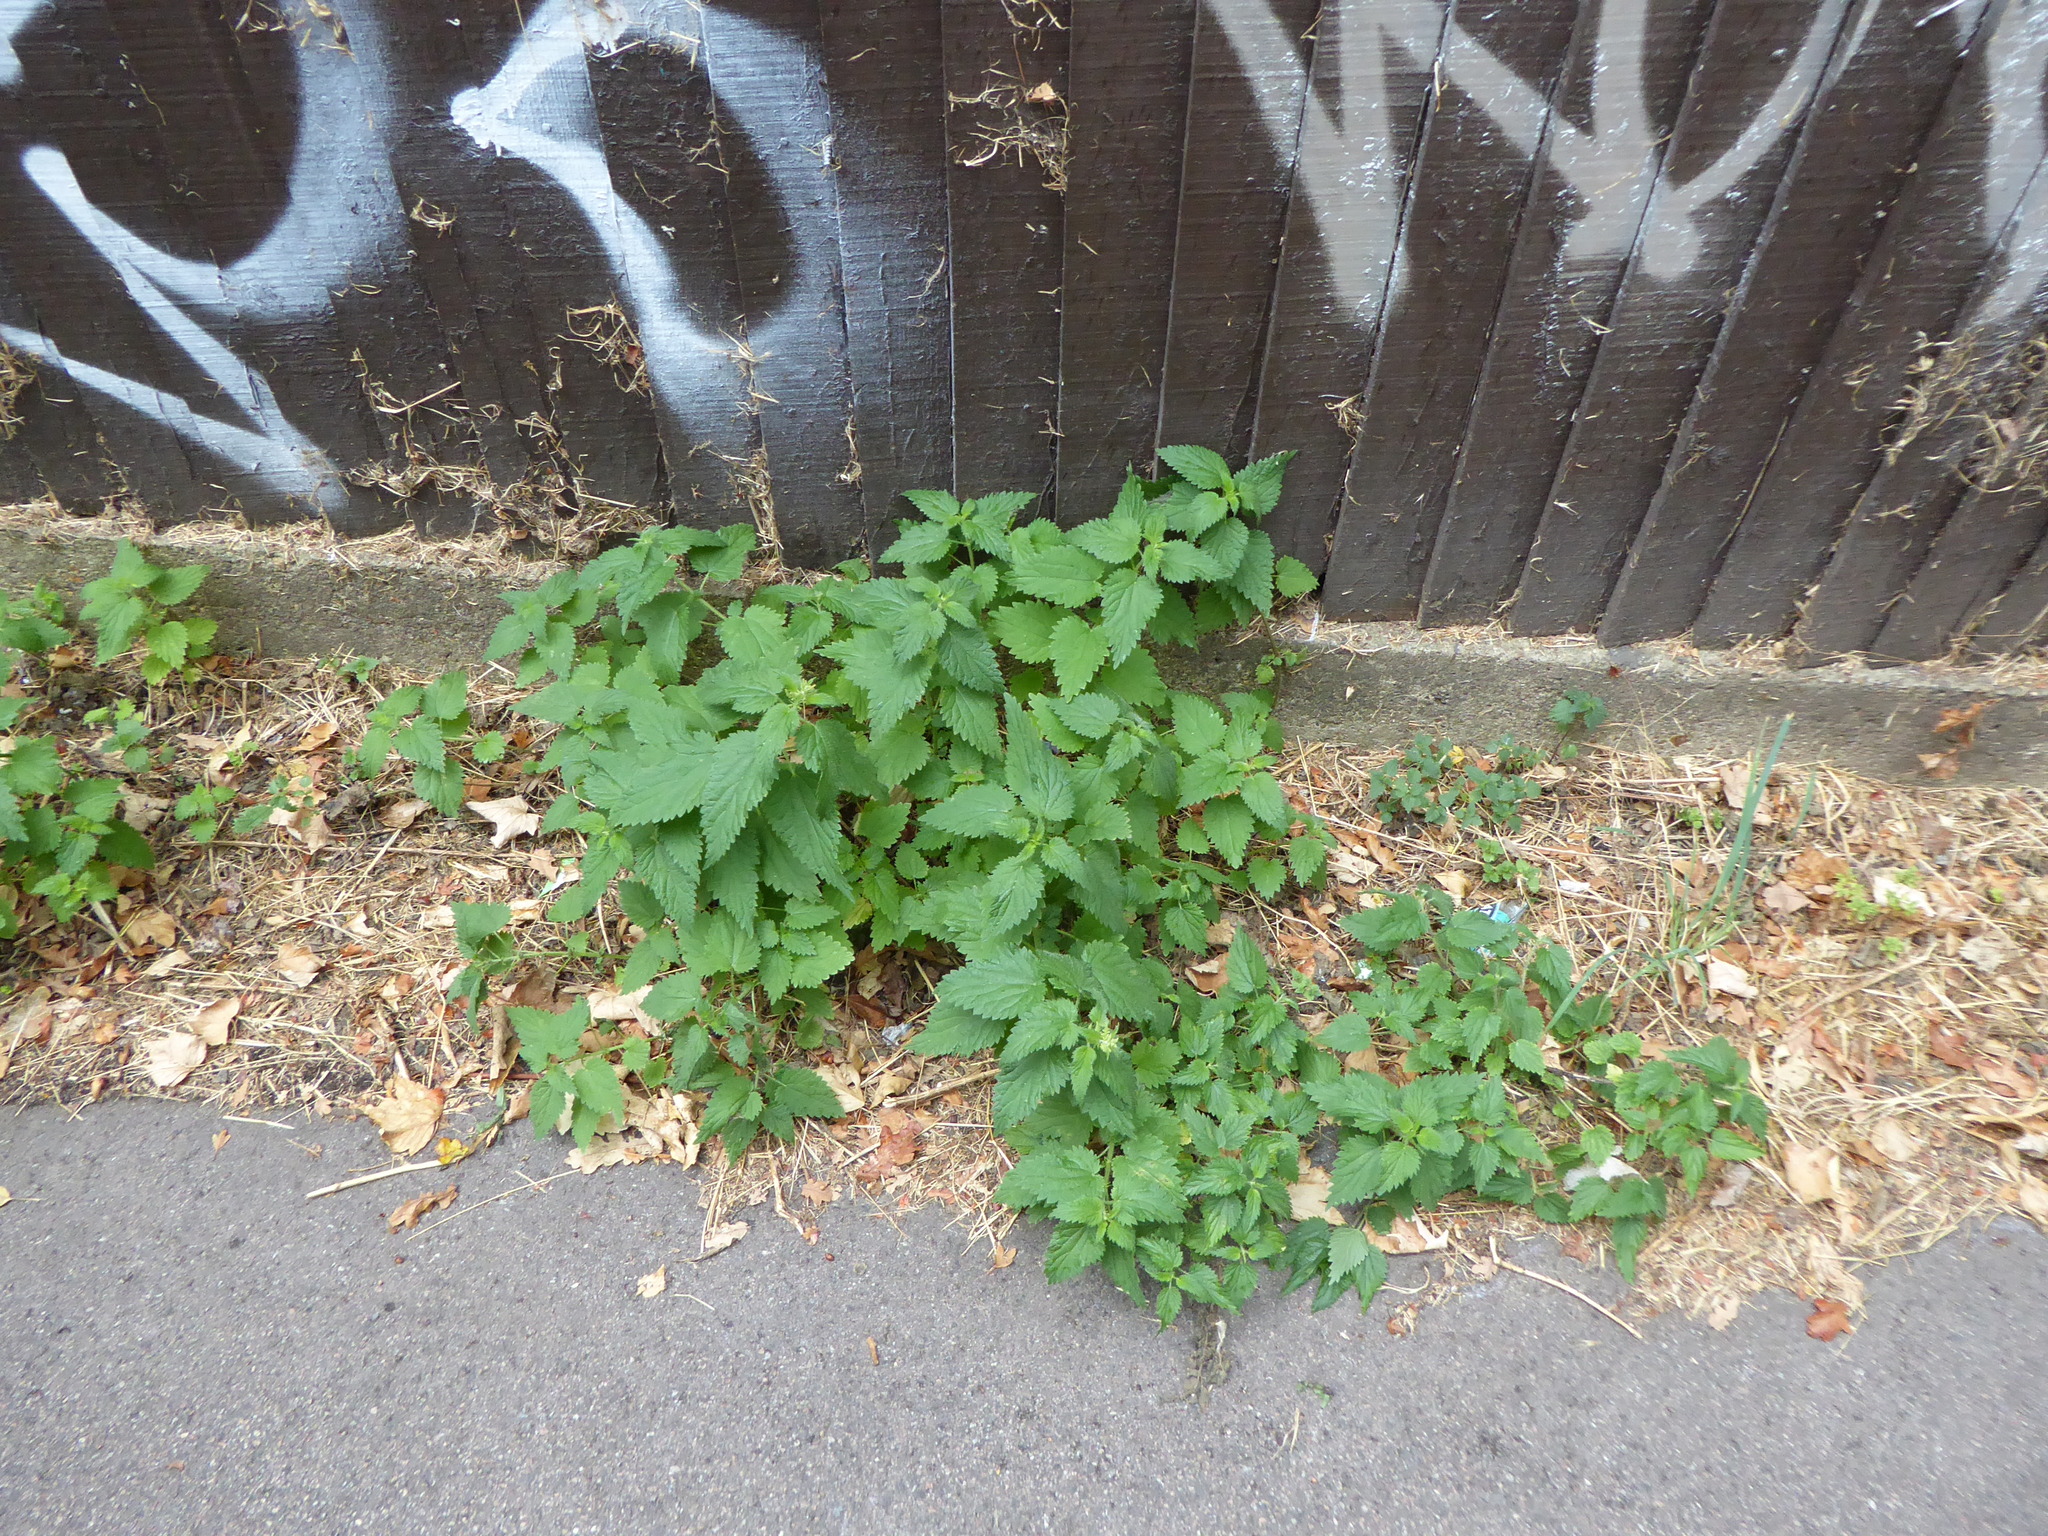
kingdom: Plantae
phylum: Tracheophyta
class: Magnoliopsida
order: Rosales
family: Urticaceae
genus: Urtica
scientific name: Urtica dioica
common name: Common nettle
